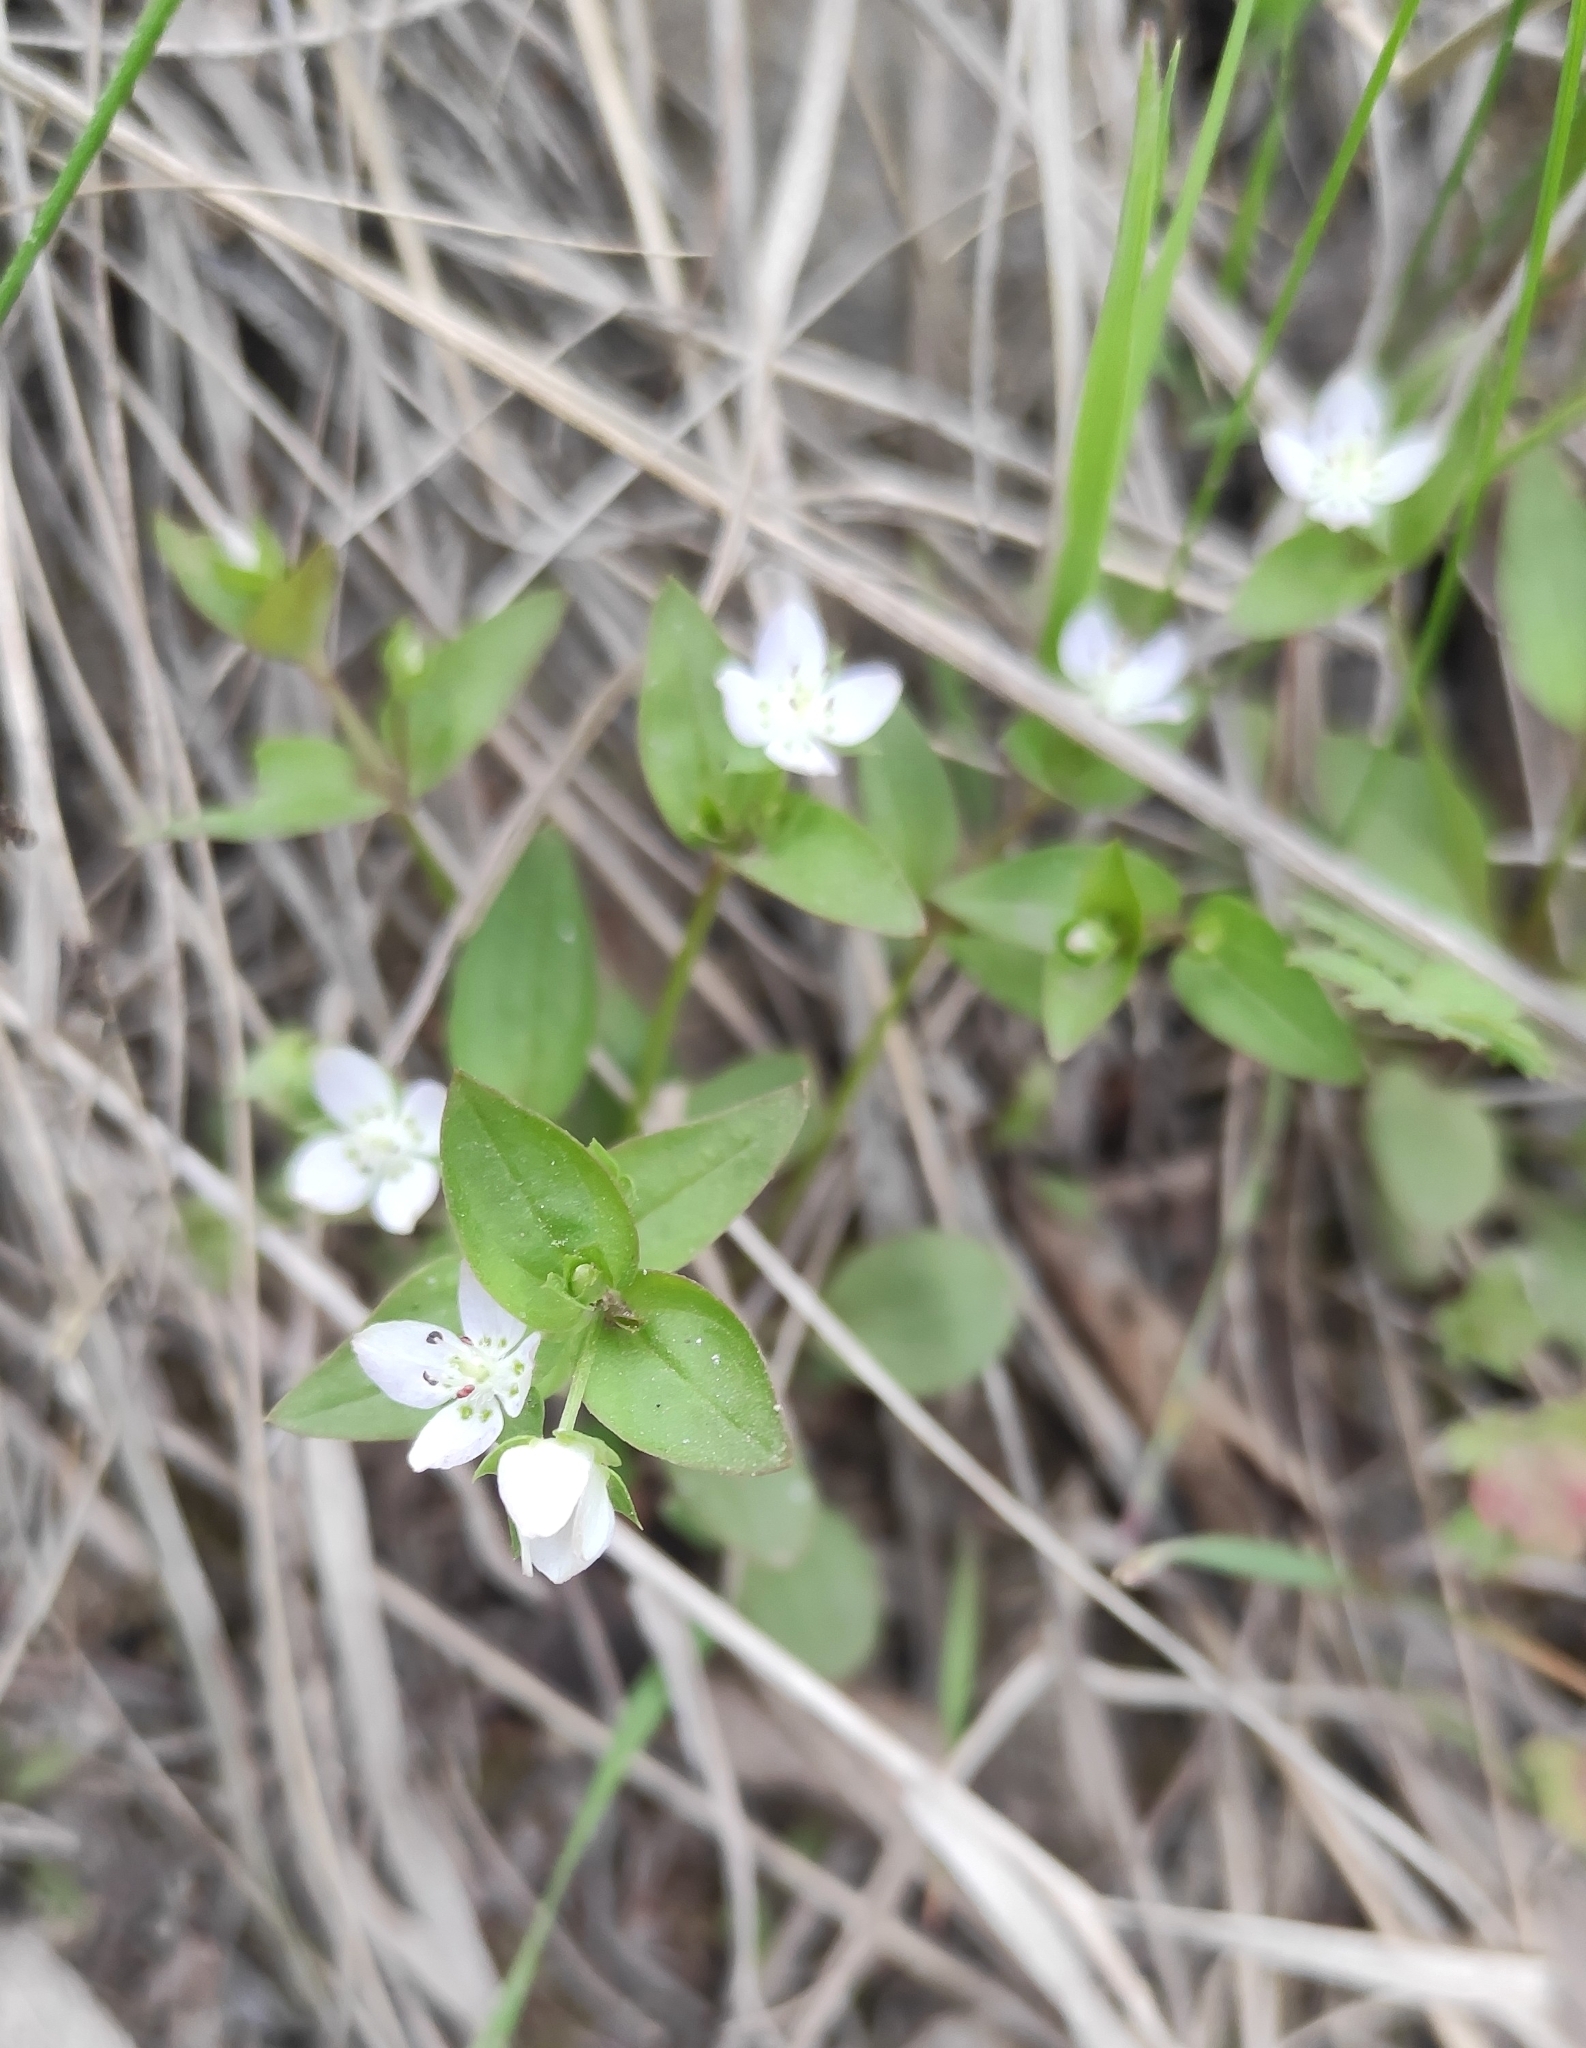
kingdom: Plantae
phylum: Tracheophyta
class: Magnoliopsida
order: Gentianales
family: Gentianaceae
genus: Swertia
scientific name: Swertia dichotoma
